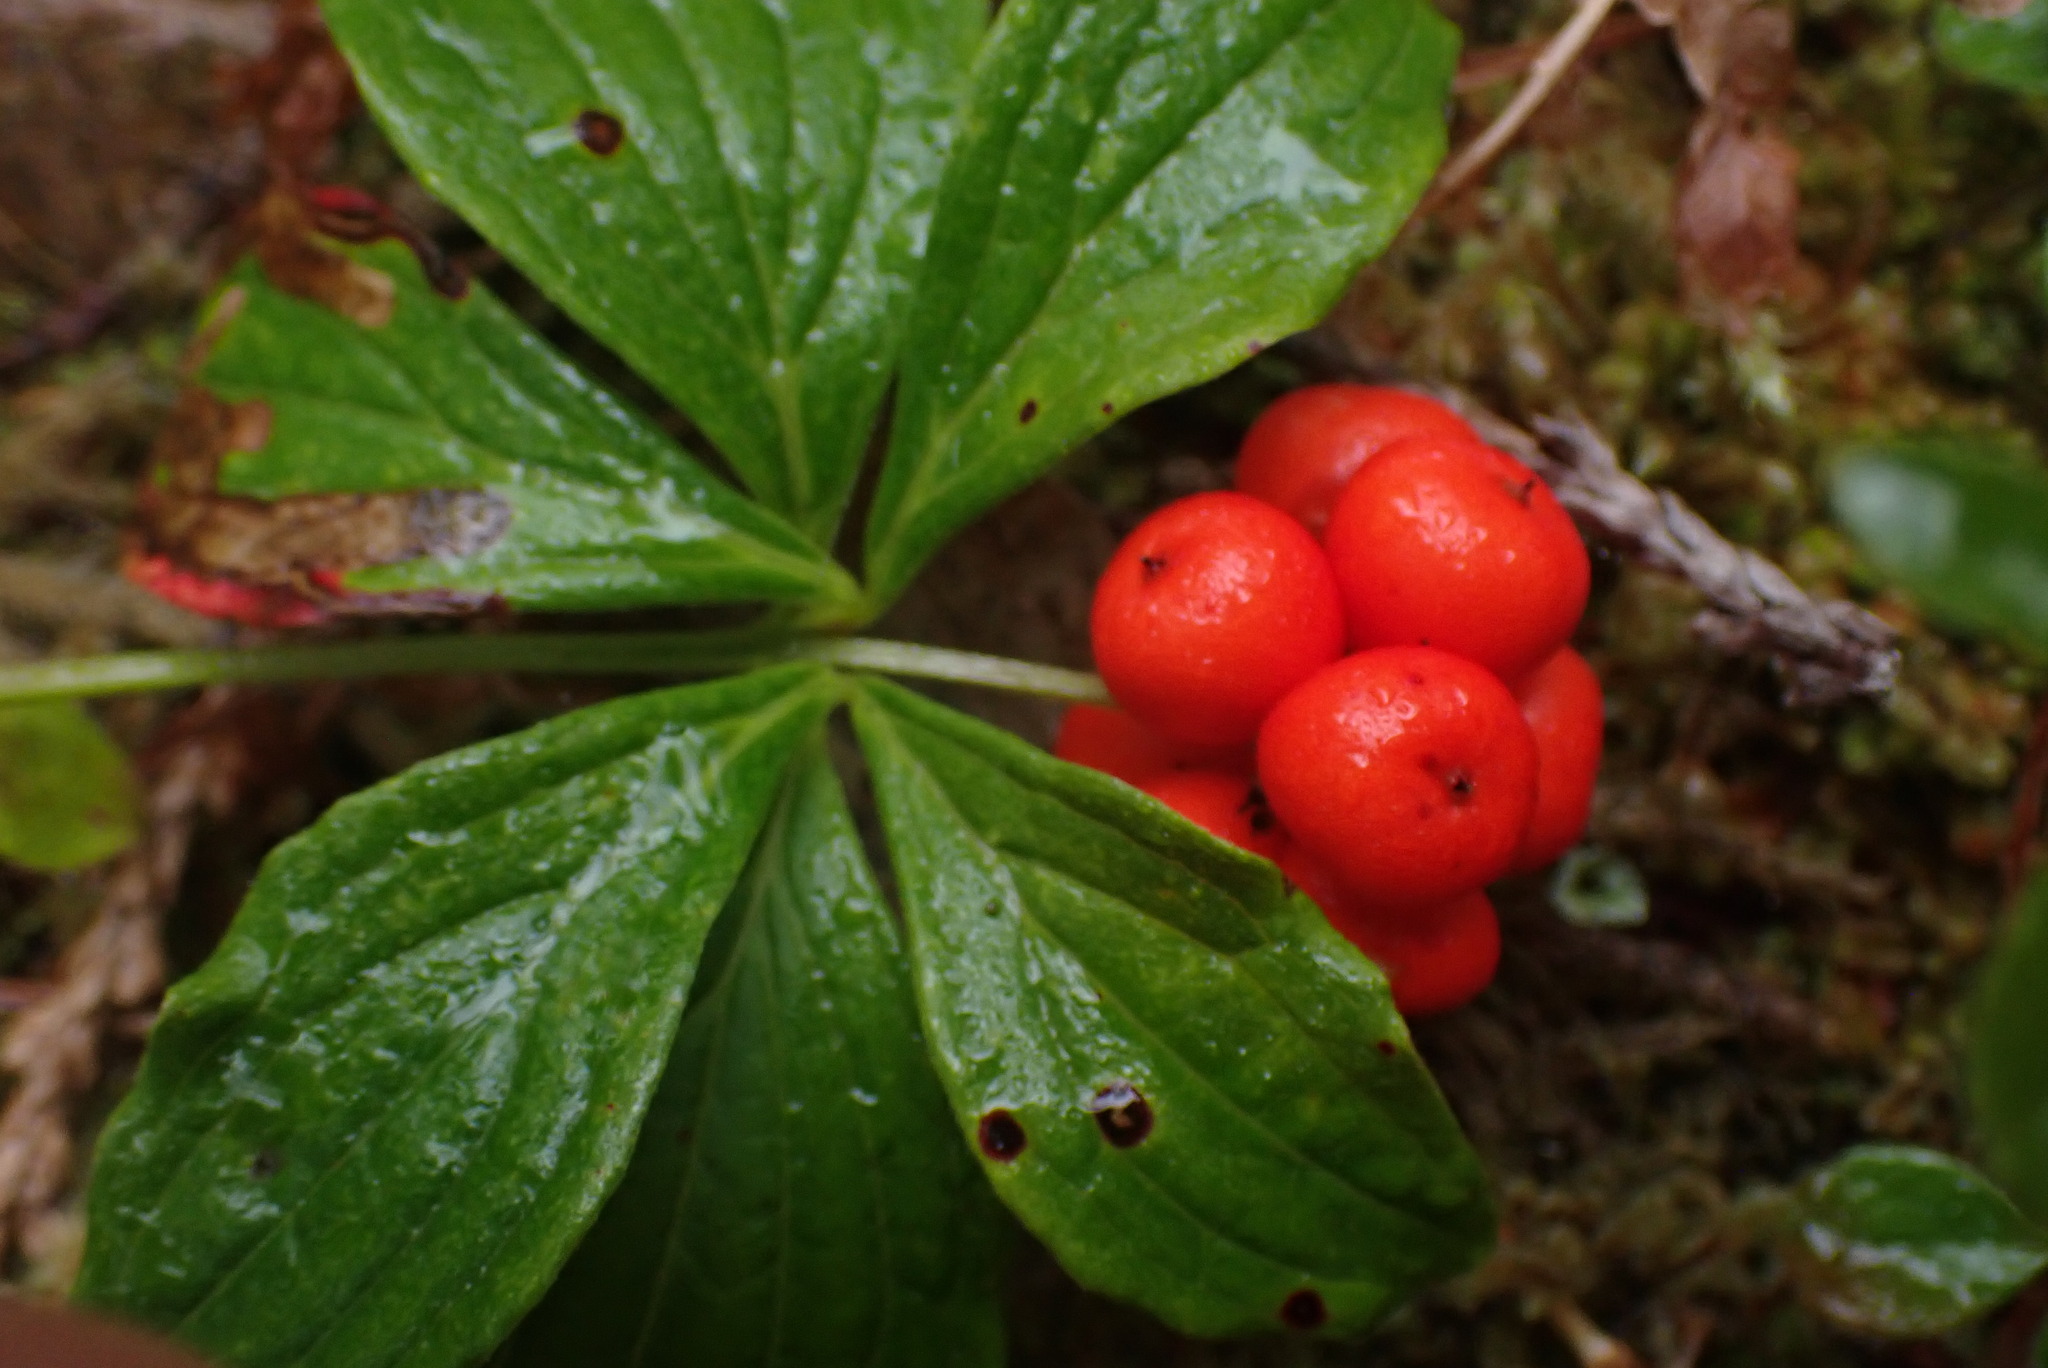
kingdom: Plantae
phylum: Tracheophyta
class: Magnoliopsida
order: Cornales
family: Cornaceae
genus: Cornus
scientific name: Cornus unalaschkensis
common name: Alaska bunchberry
